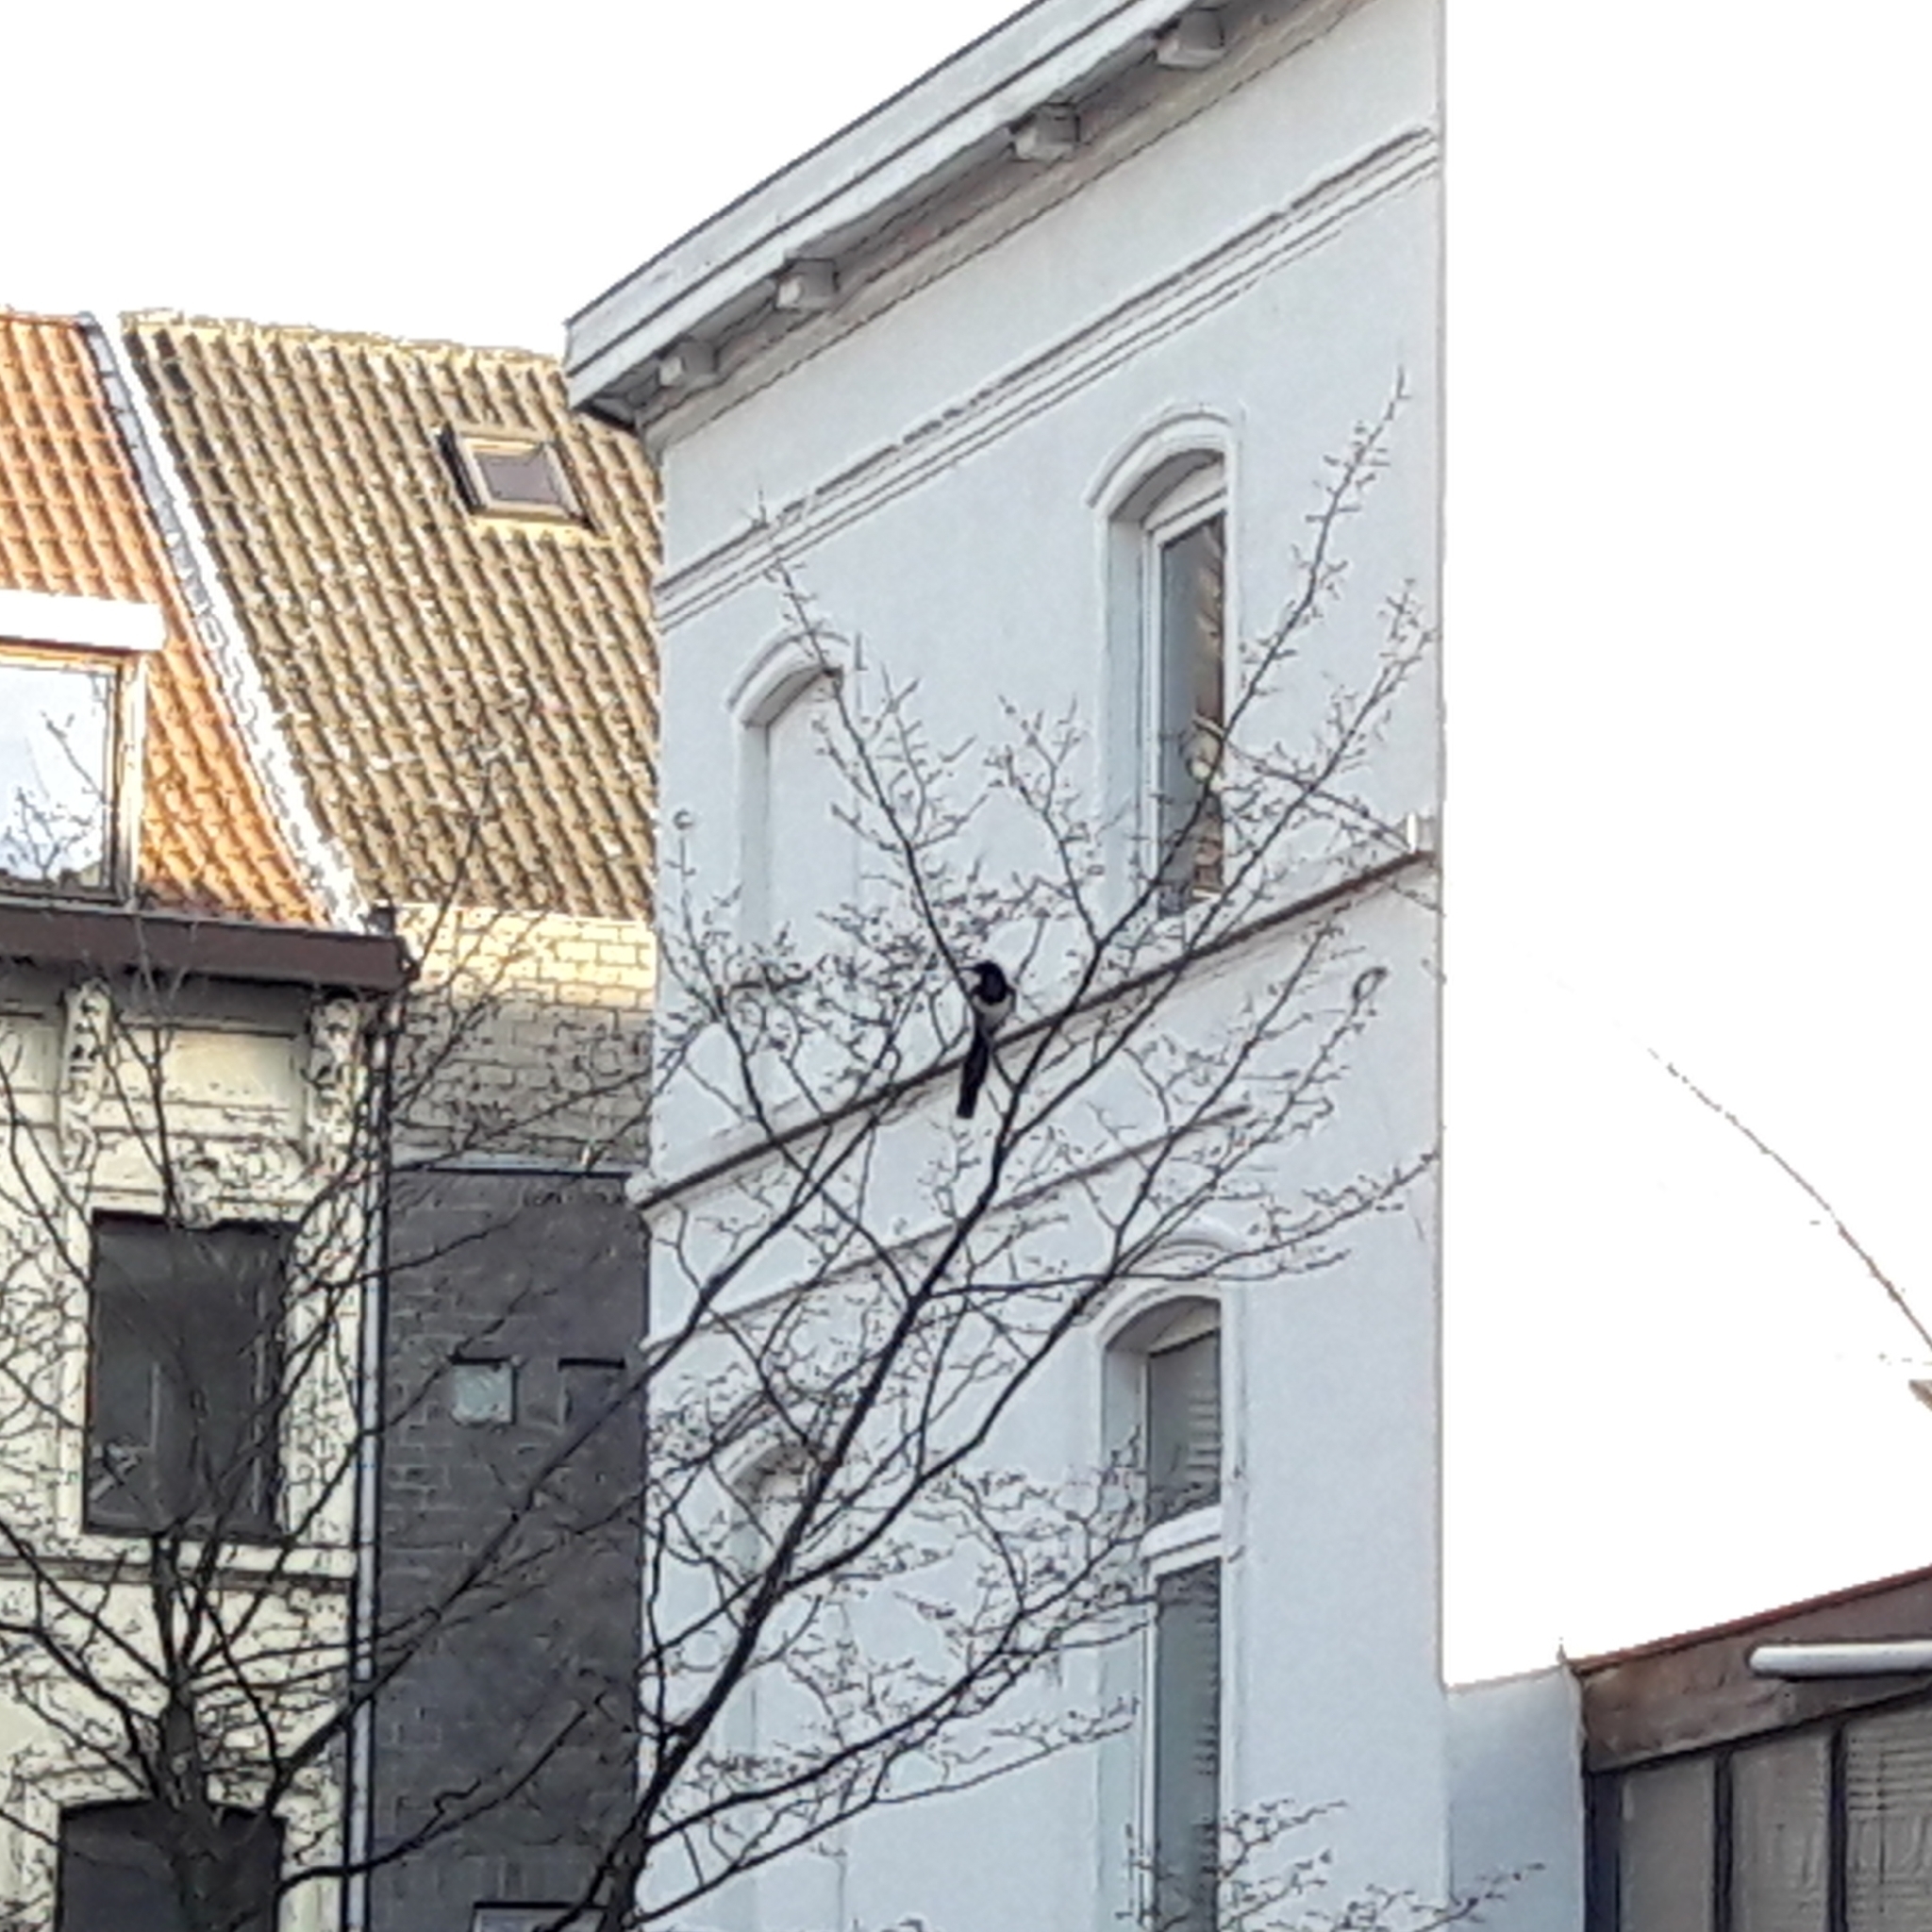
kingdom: Animalia
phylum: Chordata
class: Aves
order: Passeriformes
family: Corvidae
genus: Pica
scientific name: Pica pica
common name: Eurasian magpie
